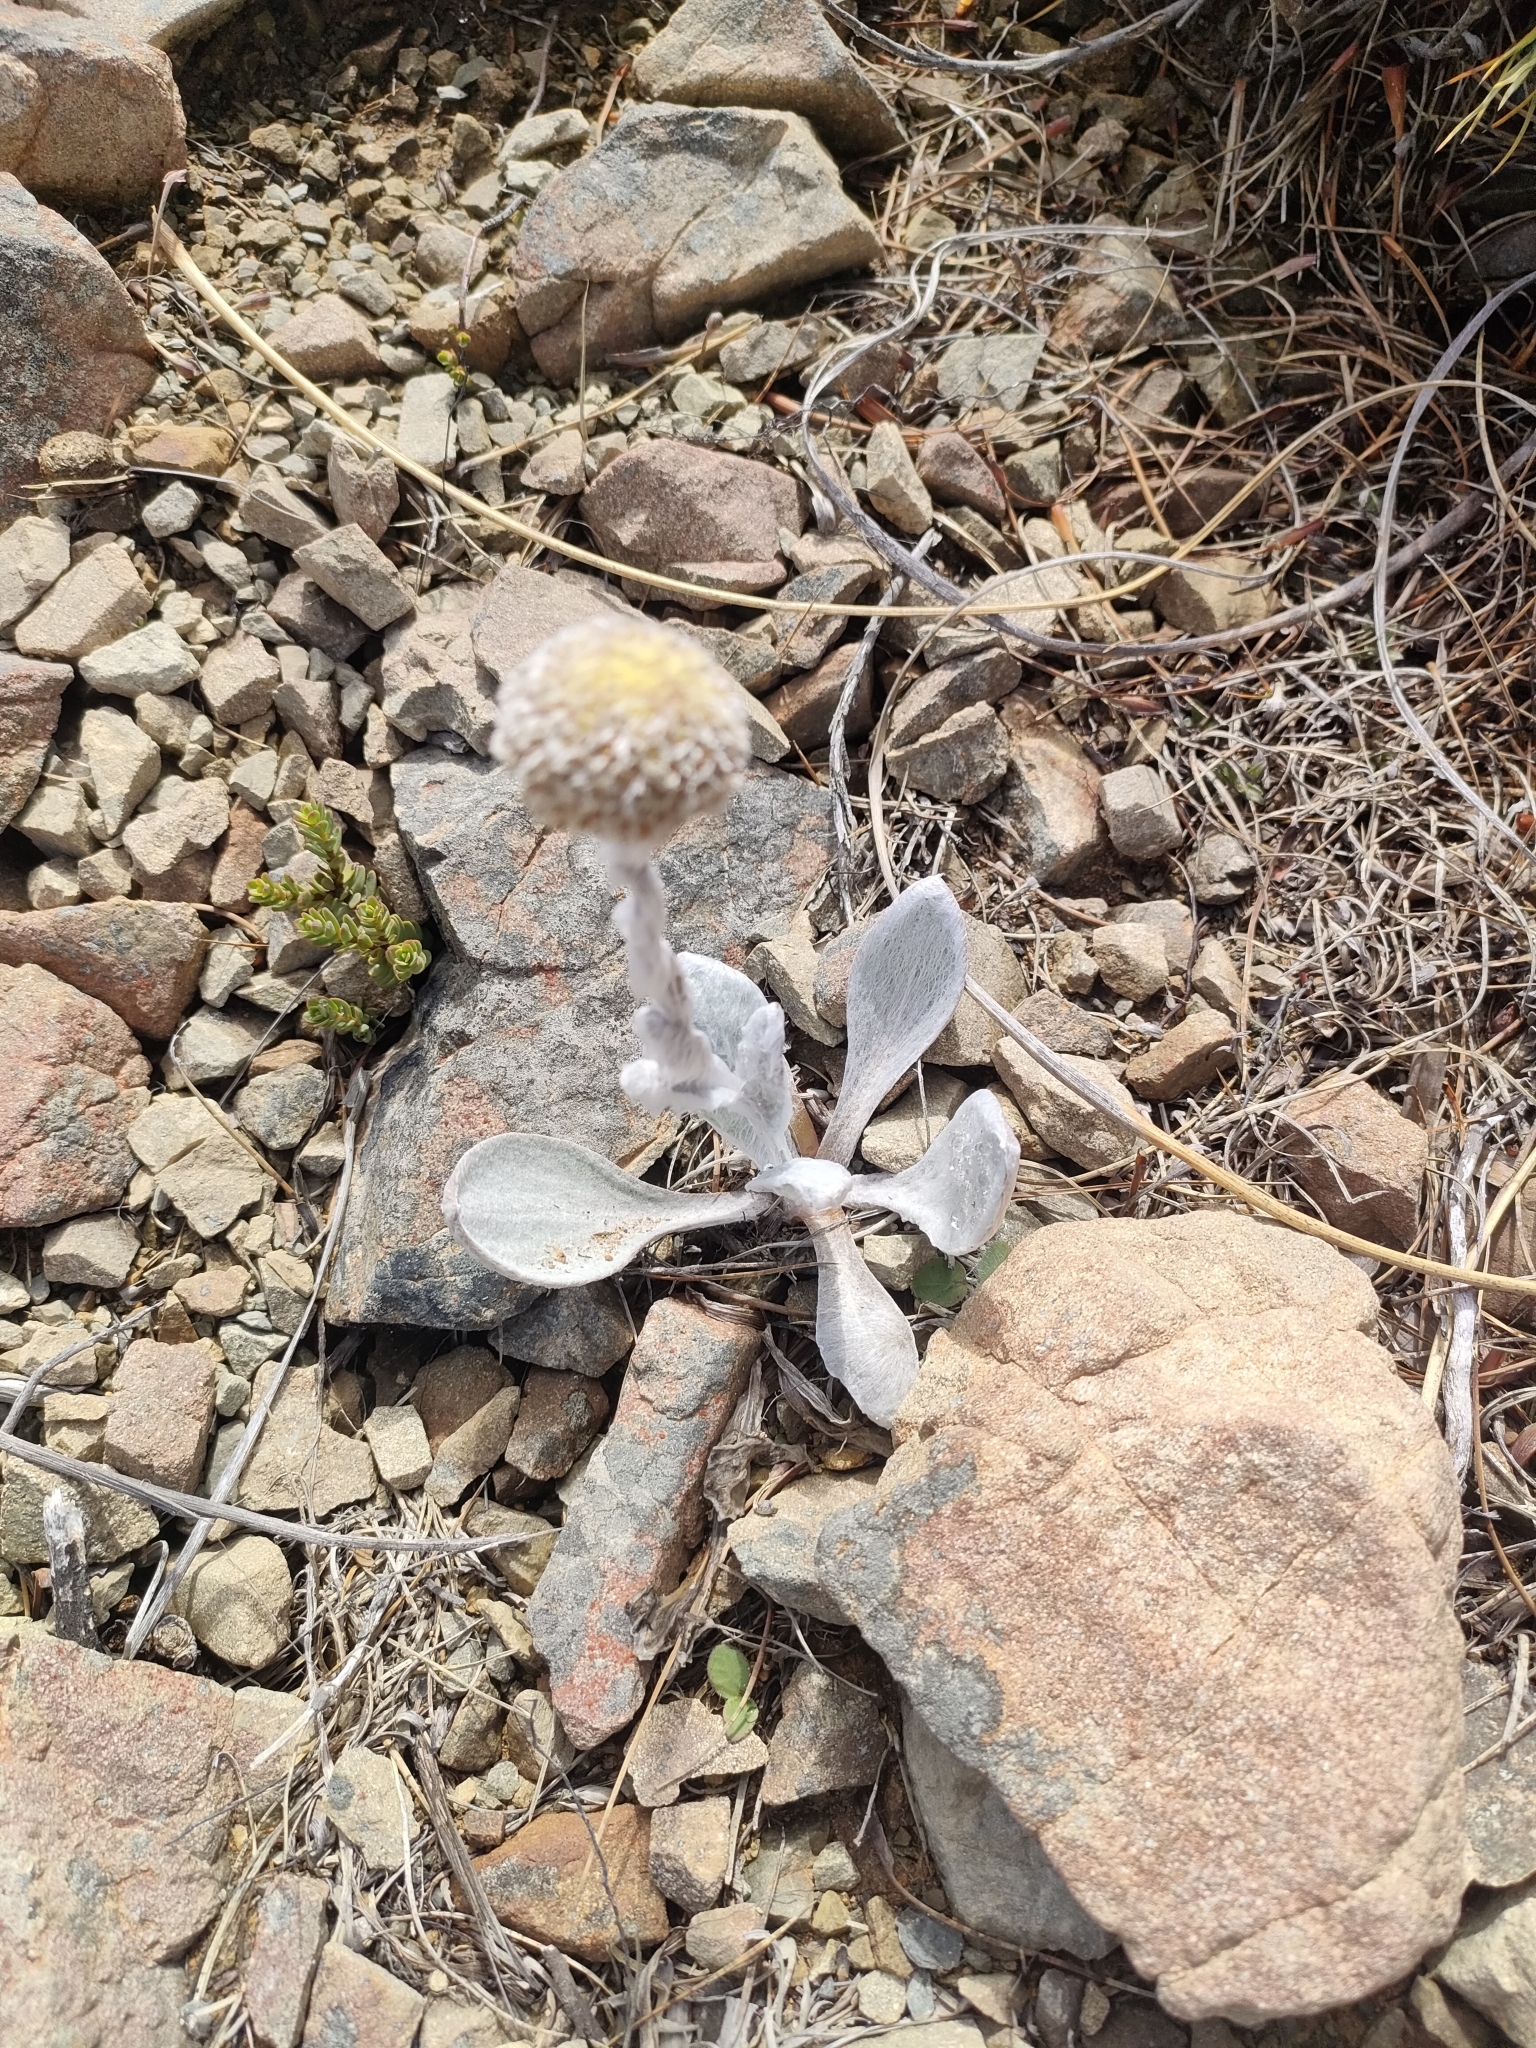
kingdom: Plantae
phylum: Tracheophyta
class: Magnoliopsida
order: Asterales
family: Asteraceae
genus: Craspedia
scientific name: Craspedia incana
